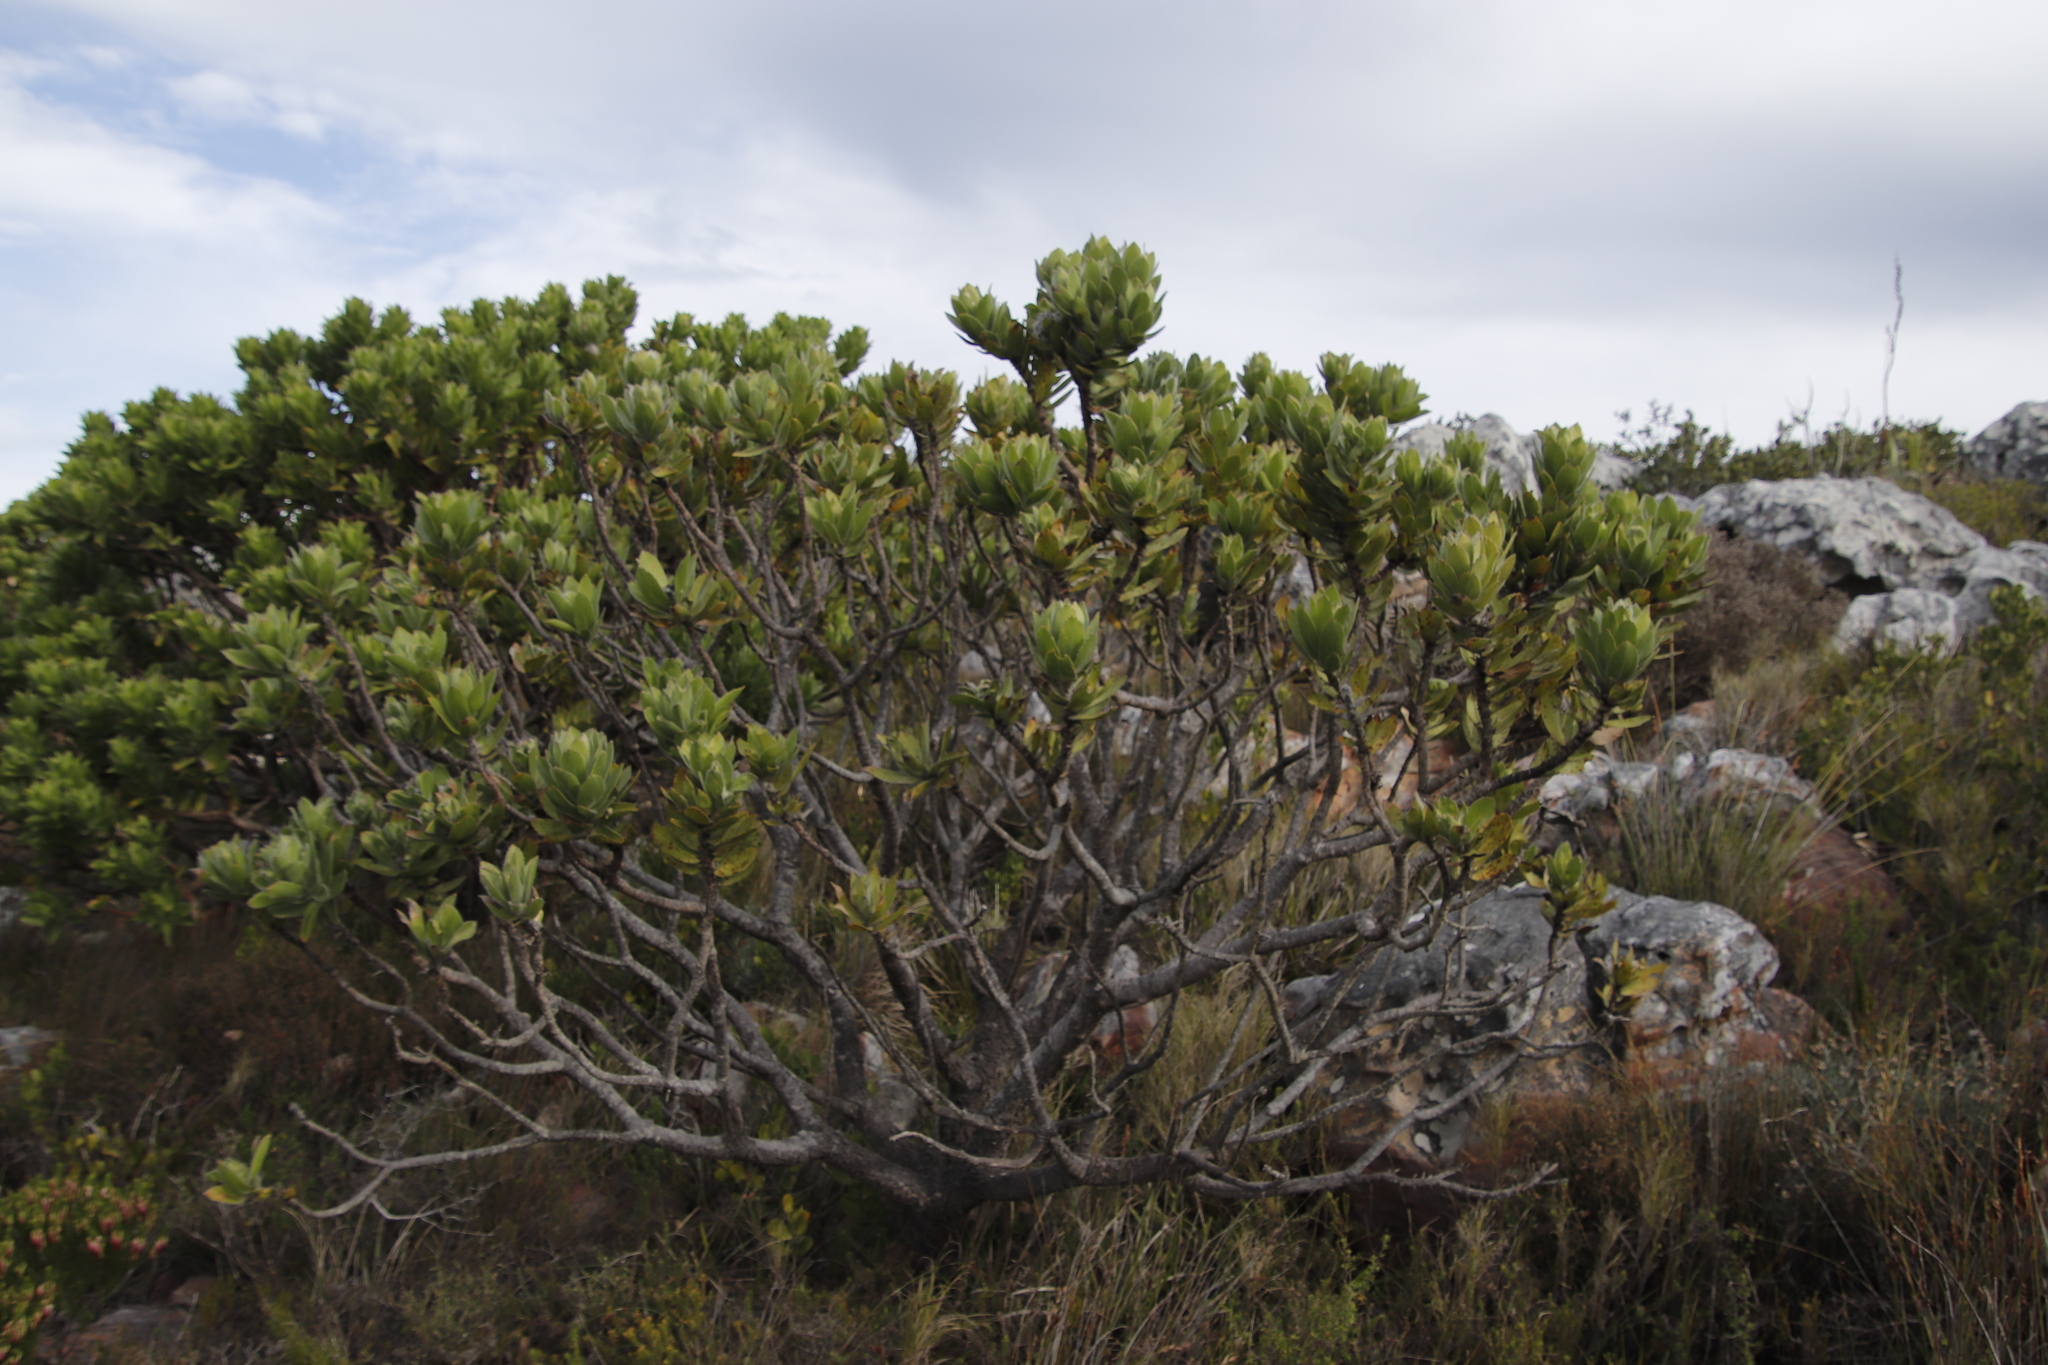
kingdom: Plantae
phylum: Tracheophyta
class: Magnoliopsida
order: Proteales
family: Proteaceae
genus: Leucospermum
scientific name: Leucospermum conocarpodendron
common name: Tree pincushion
